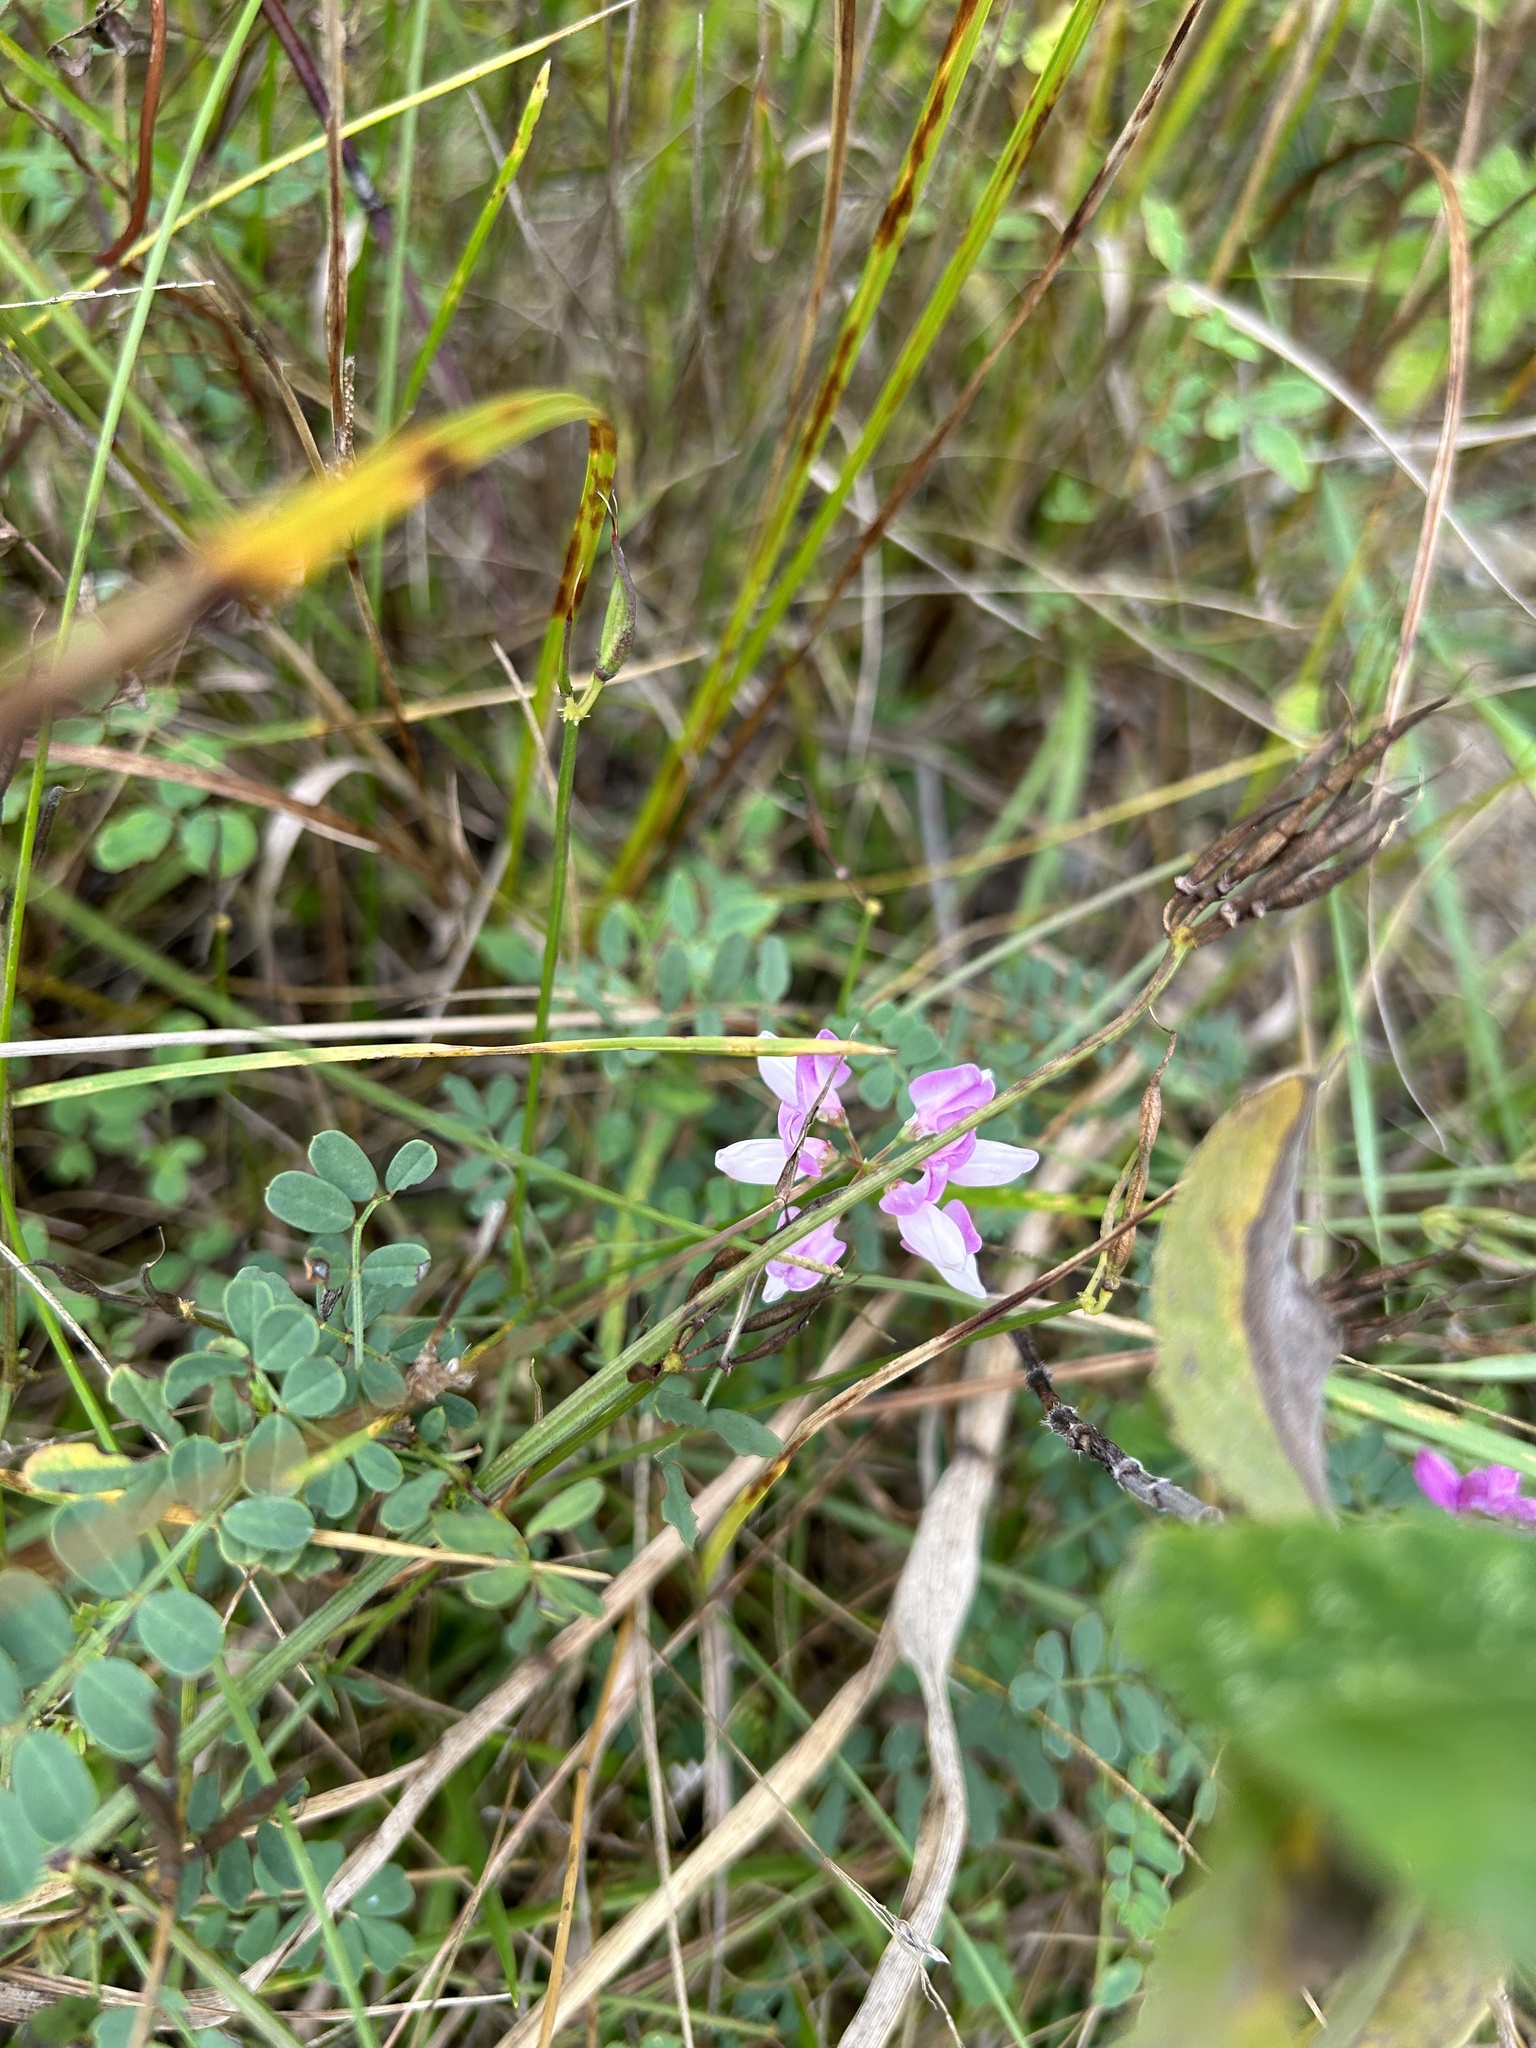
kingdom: Plantae
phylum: Tracheophyta
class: Magnoliopsida
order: Fabales
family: Fabaceae
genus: Coronilla
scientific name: Coronilla varia
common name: Crownvetch
